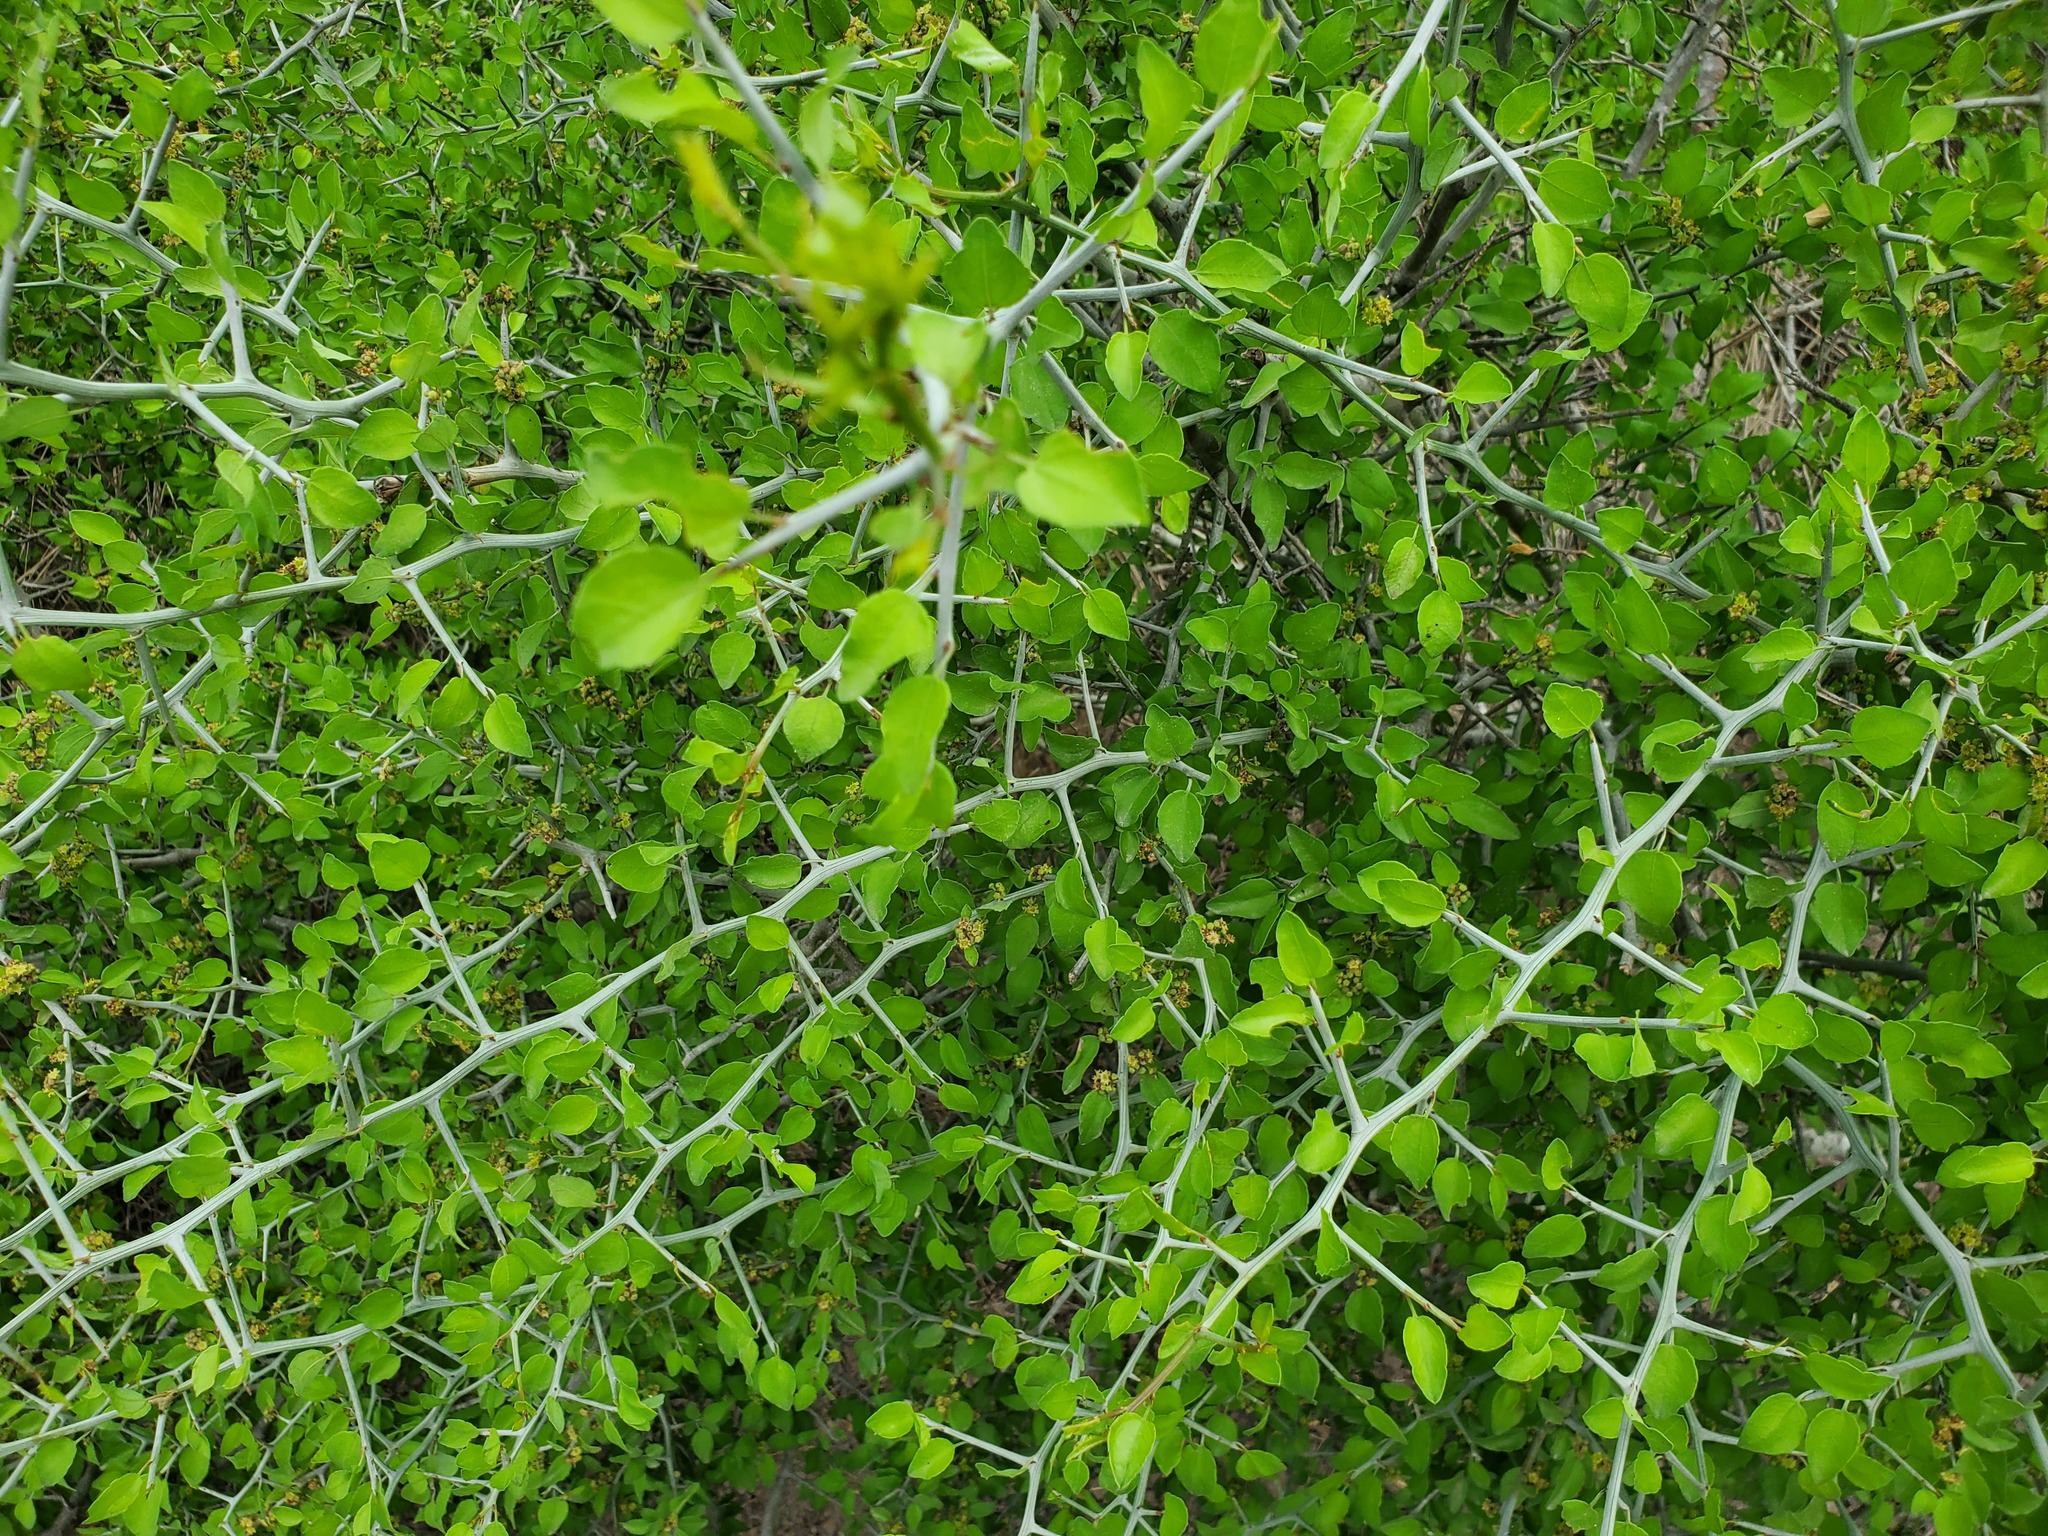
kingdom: Plantae
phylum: Tracheophyta
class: Magnoliopsida
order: Rosales
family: Rhamnaceae
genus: Sarcomphalus
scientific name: Sarcomphalus obtusifolius
